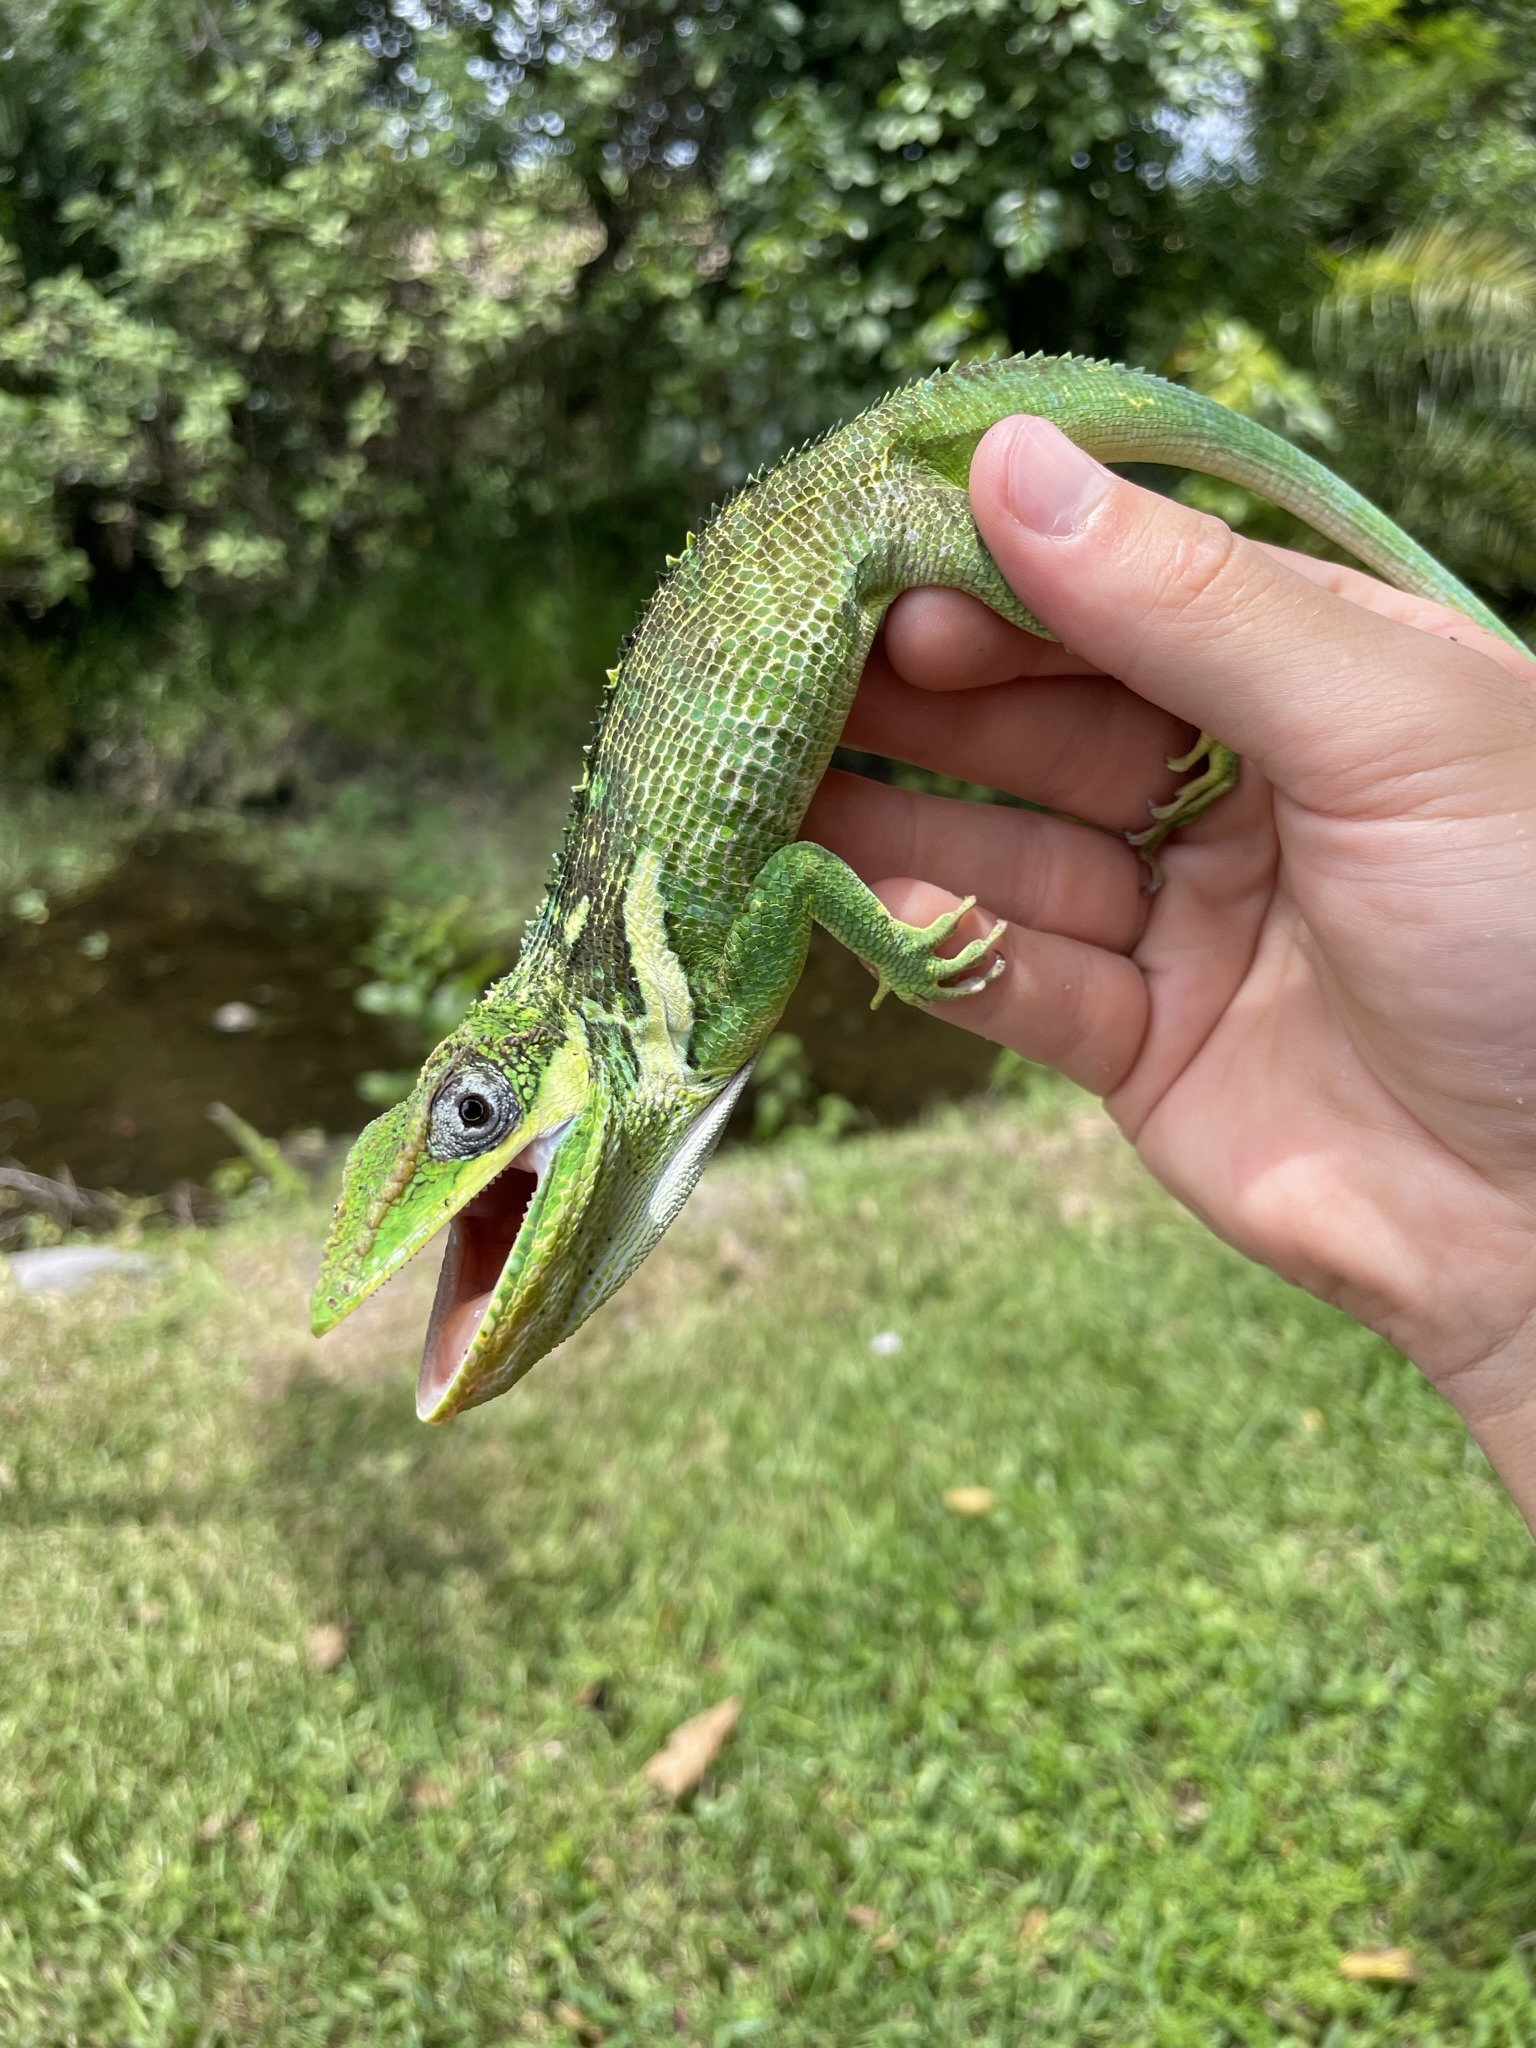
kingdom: Animalia
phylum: Chordata
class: Squamata
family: Dactyloidae
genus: Anolis
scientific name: Anolis equestris
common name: Knight anole
